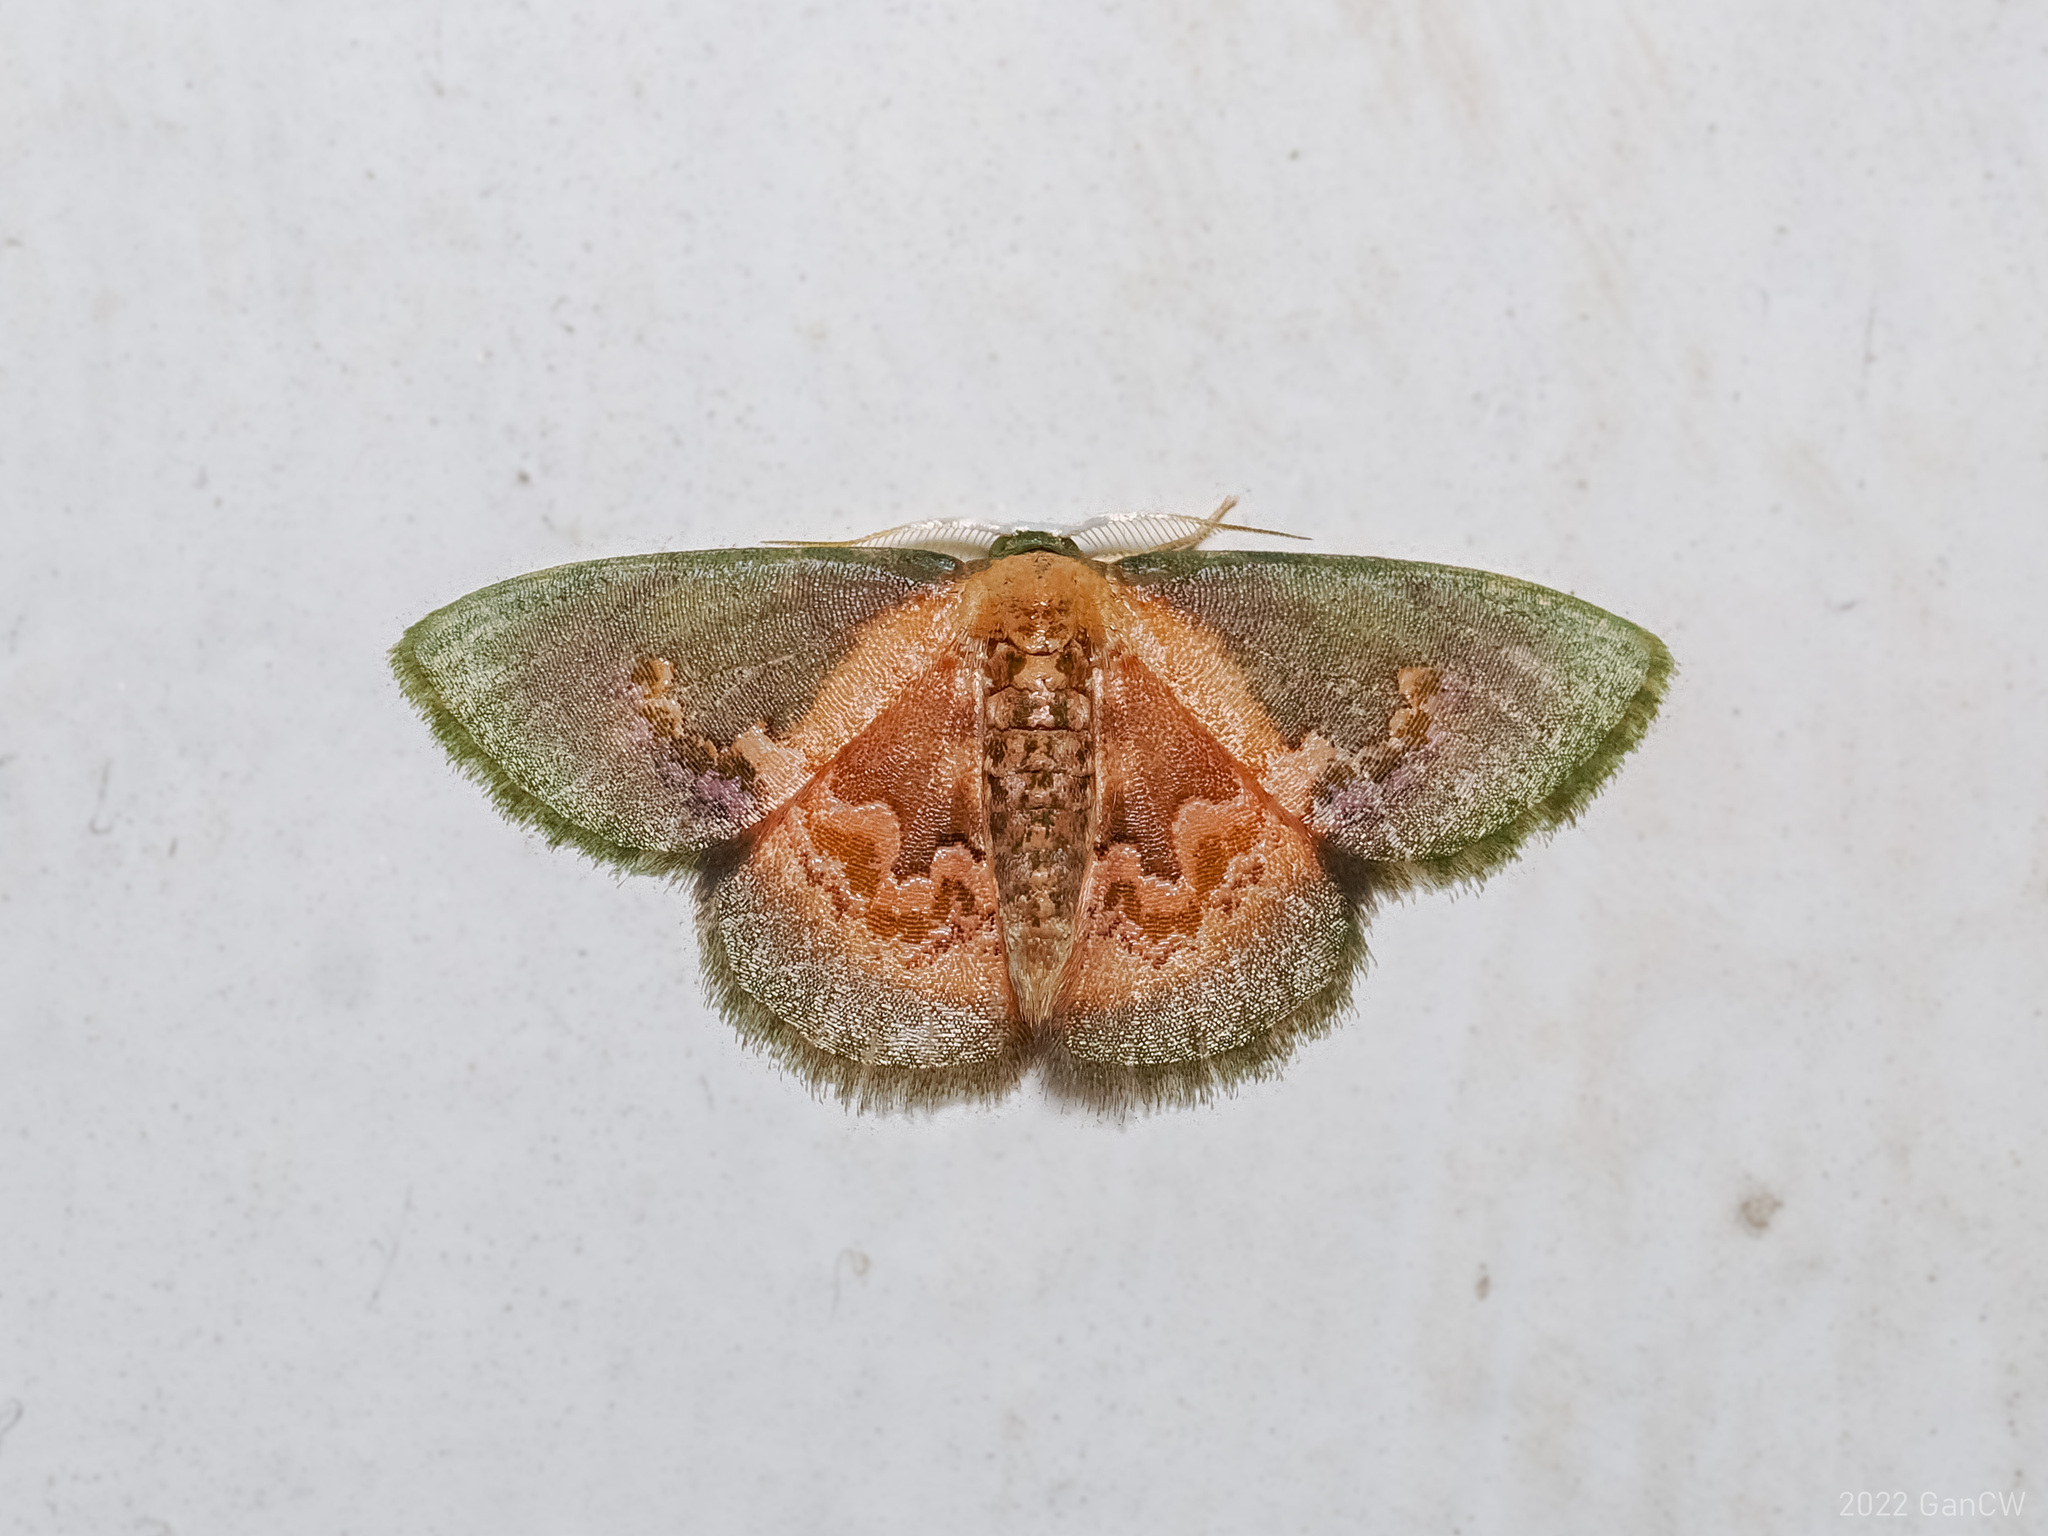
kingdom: Animalia
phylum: Arthropoda
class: Insecta
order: Lepidoptera
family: Geometridae
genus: Rhanidopsis
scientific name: Rhanidopsis alleni
